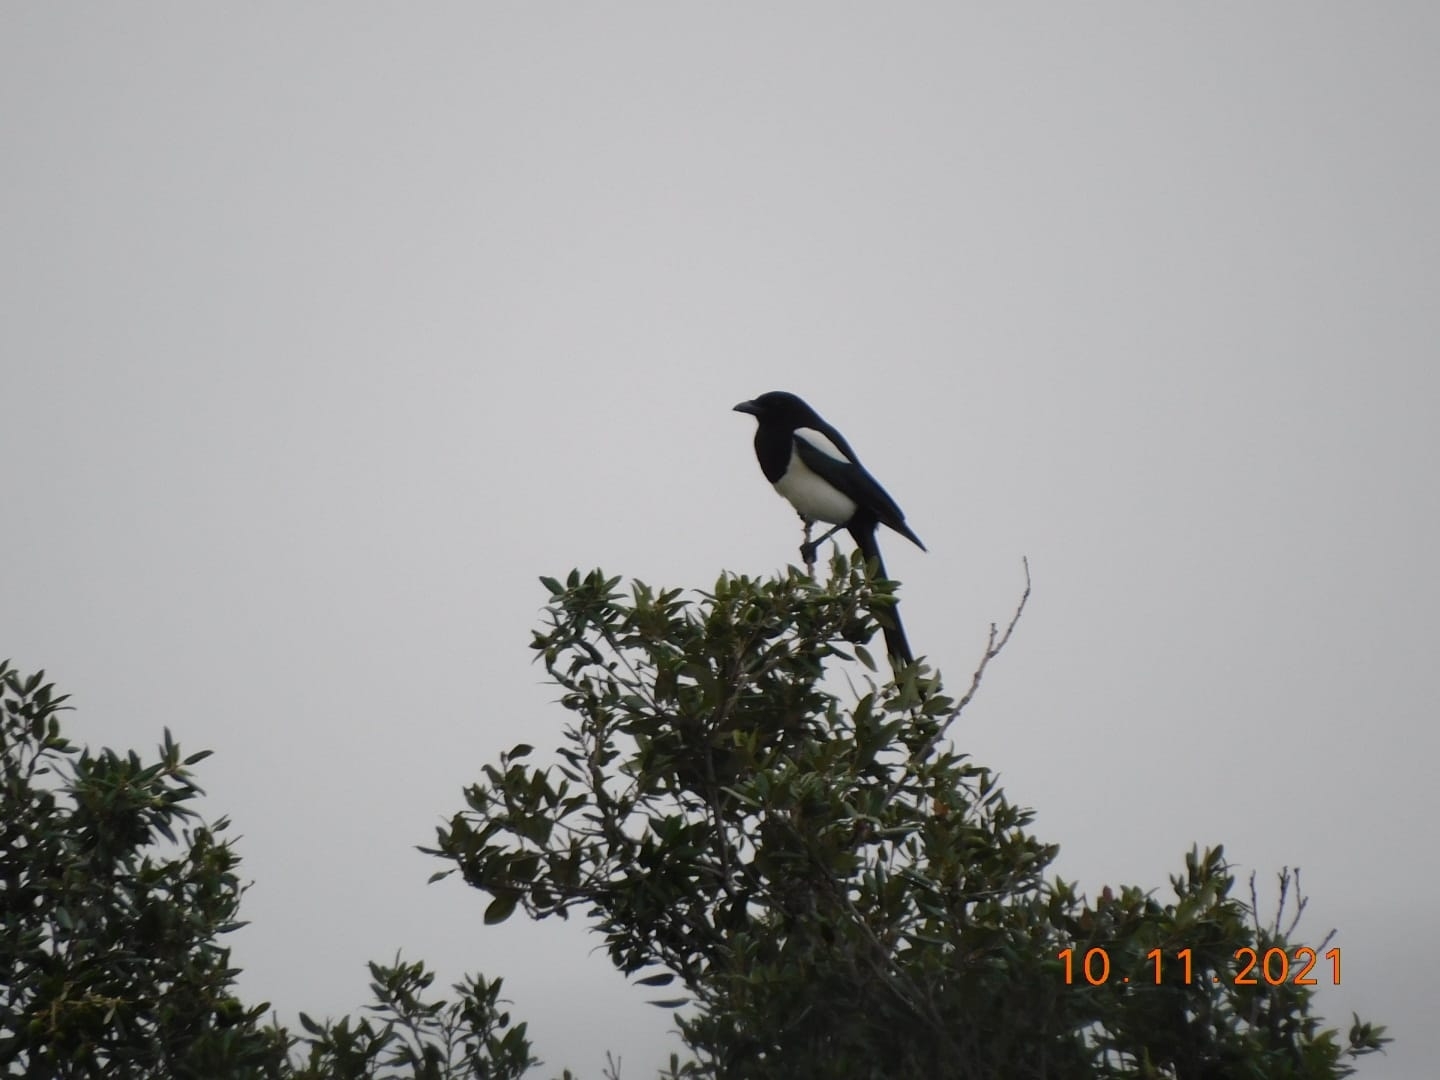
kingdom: Animalia
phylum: Chordata
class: Aves
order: Passeriformes
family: Corvidae
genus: Pica
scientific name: Pica pica
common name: Eurasian magpie
